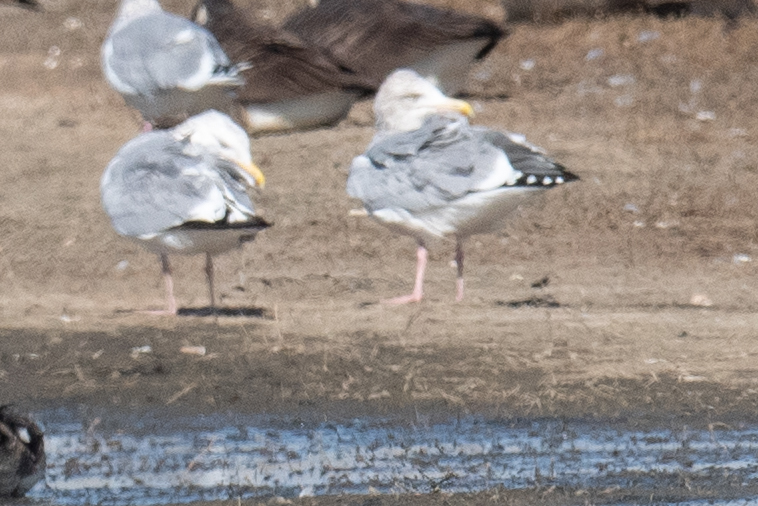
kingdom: Animalia
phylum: Chordata
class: Aves
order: Charadriiformes
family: Laridae
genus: Larus
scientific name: Larus argentatus
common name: Herring gull
